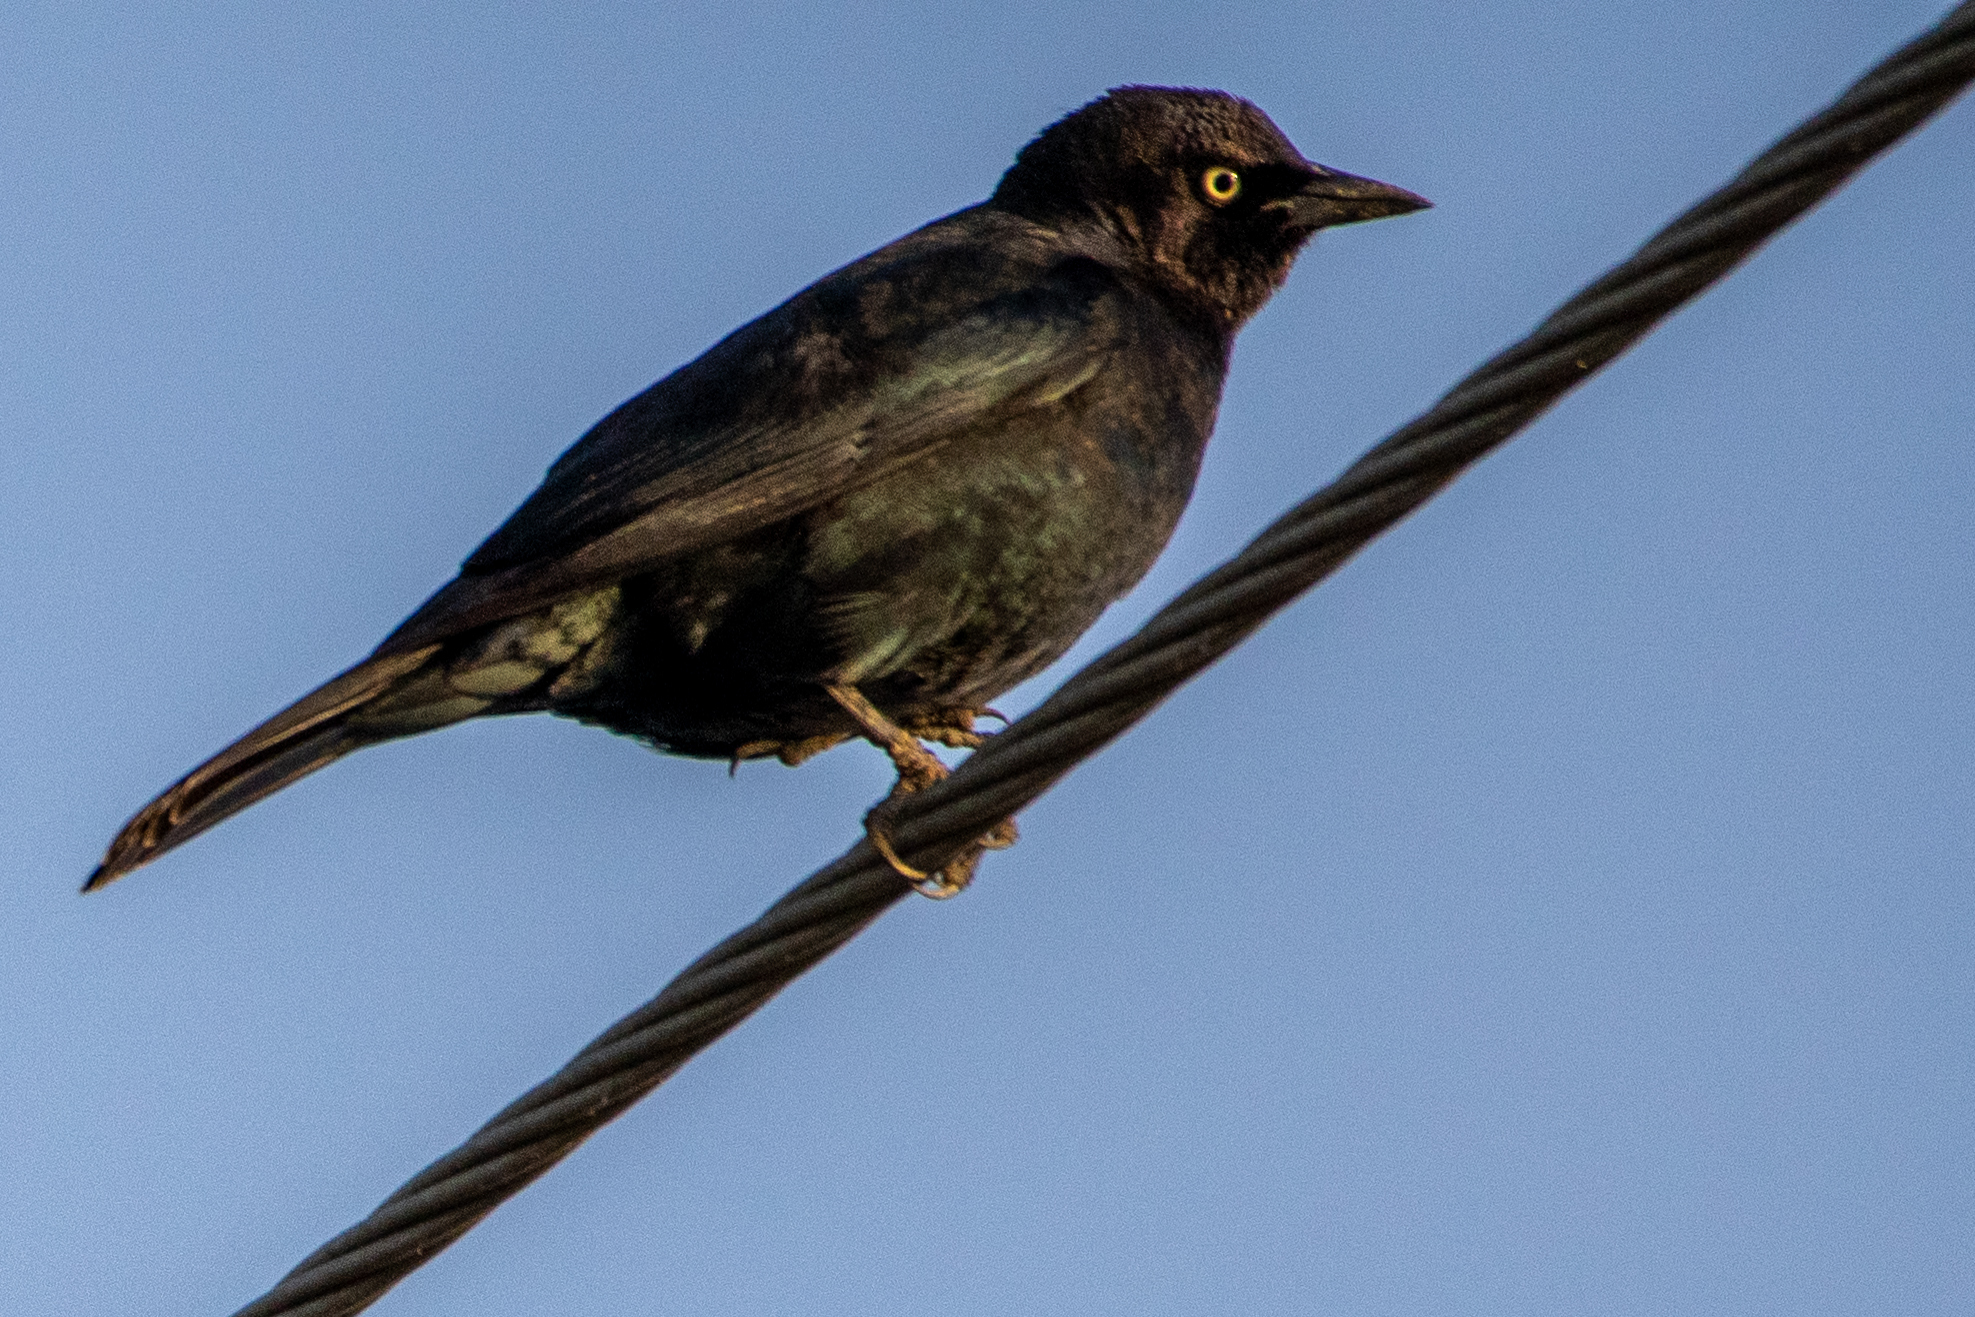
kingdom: Animalia
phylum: Chordata
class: Aves
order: Passeriformes
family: Icteridae
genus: Euphagus
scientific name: Euphagus cyanocephalus
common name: Brewer's blackbird
